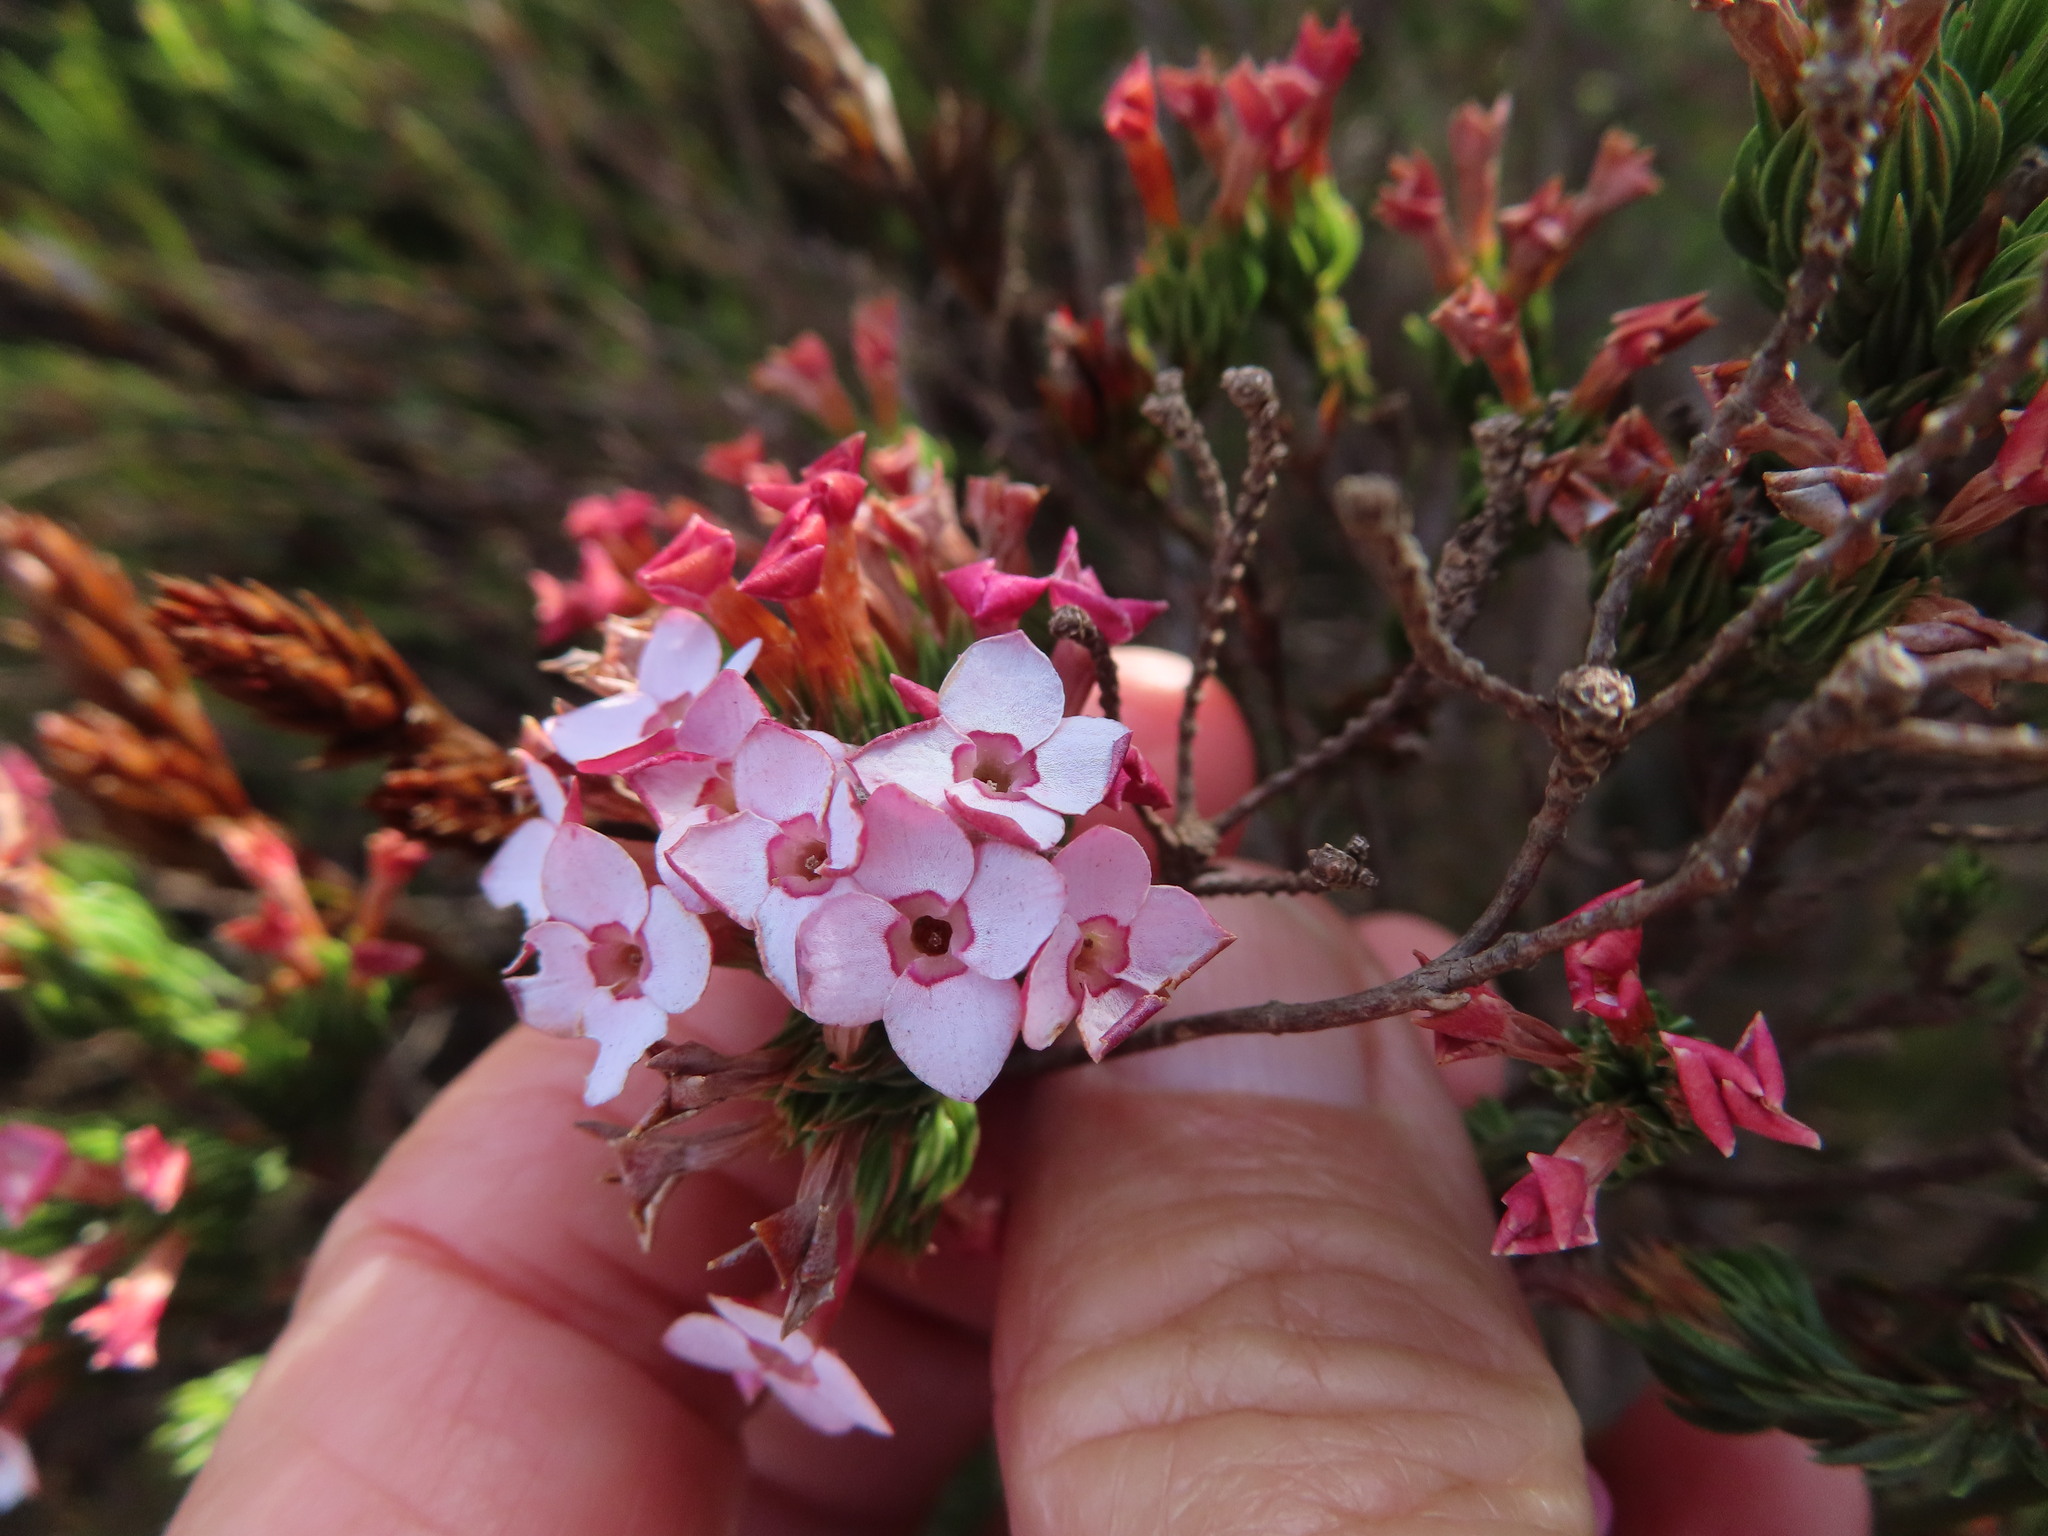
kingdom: Plantae
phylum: Tracheophyta
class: Magnoliopsida
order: Ericales
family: Ericaceae
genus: Erica
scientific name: Erica fastigiata
